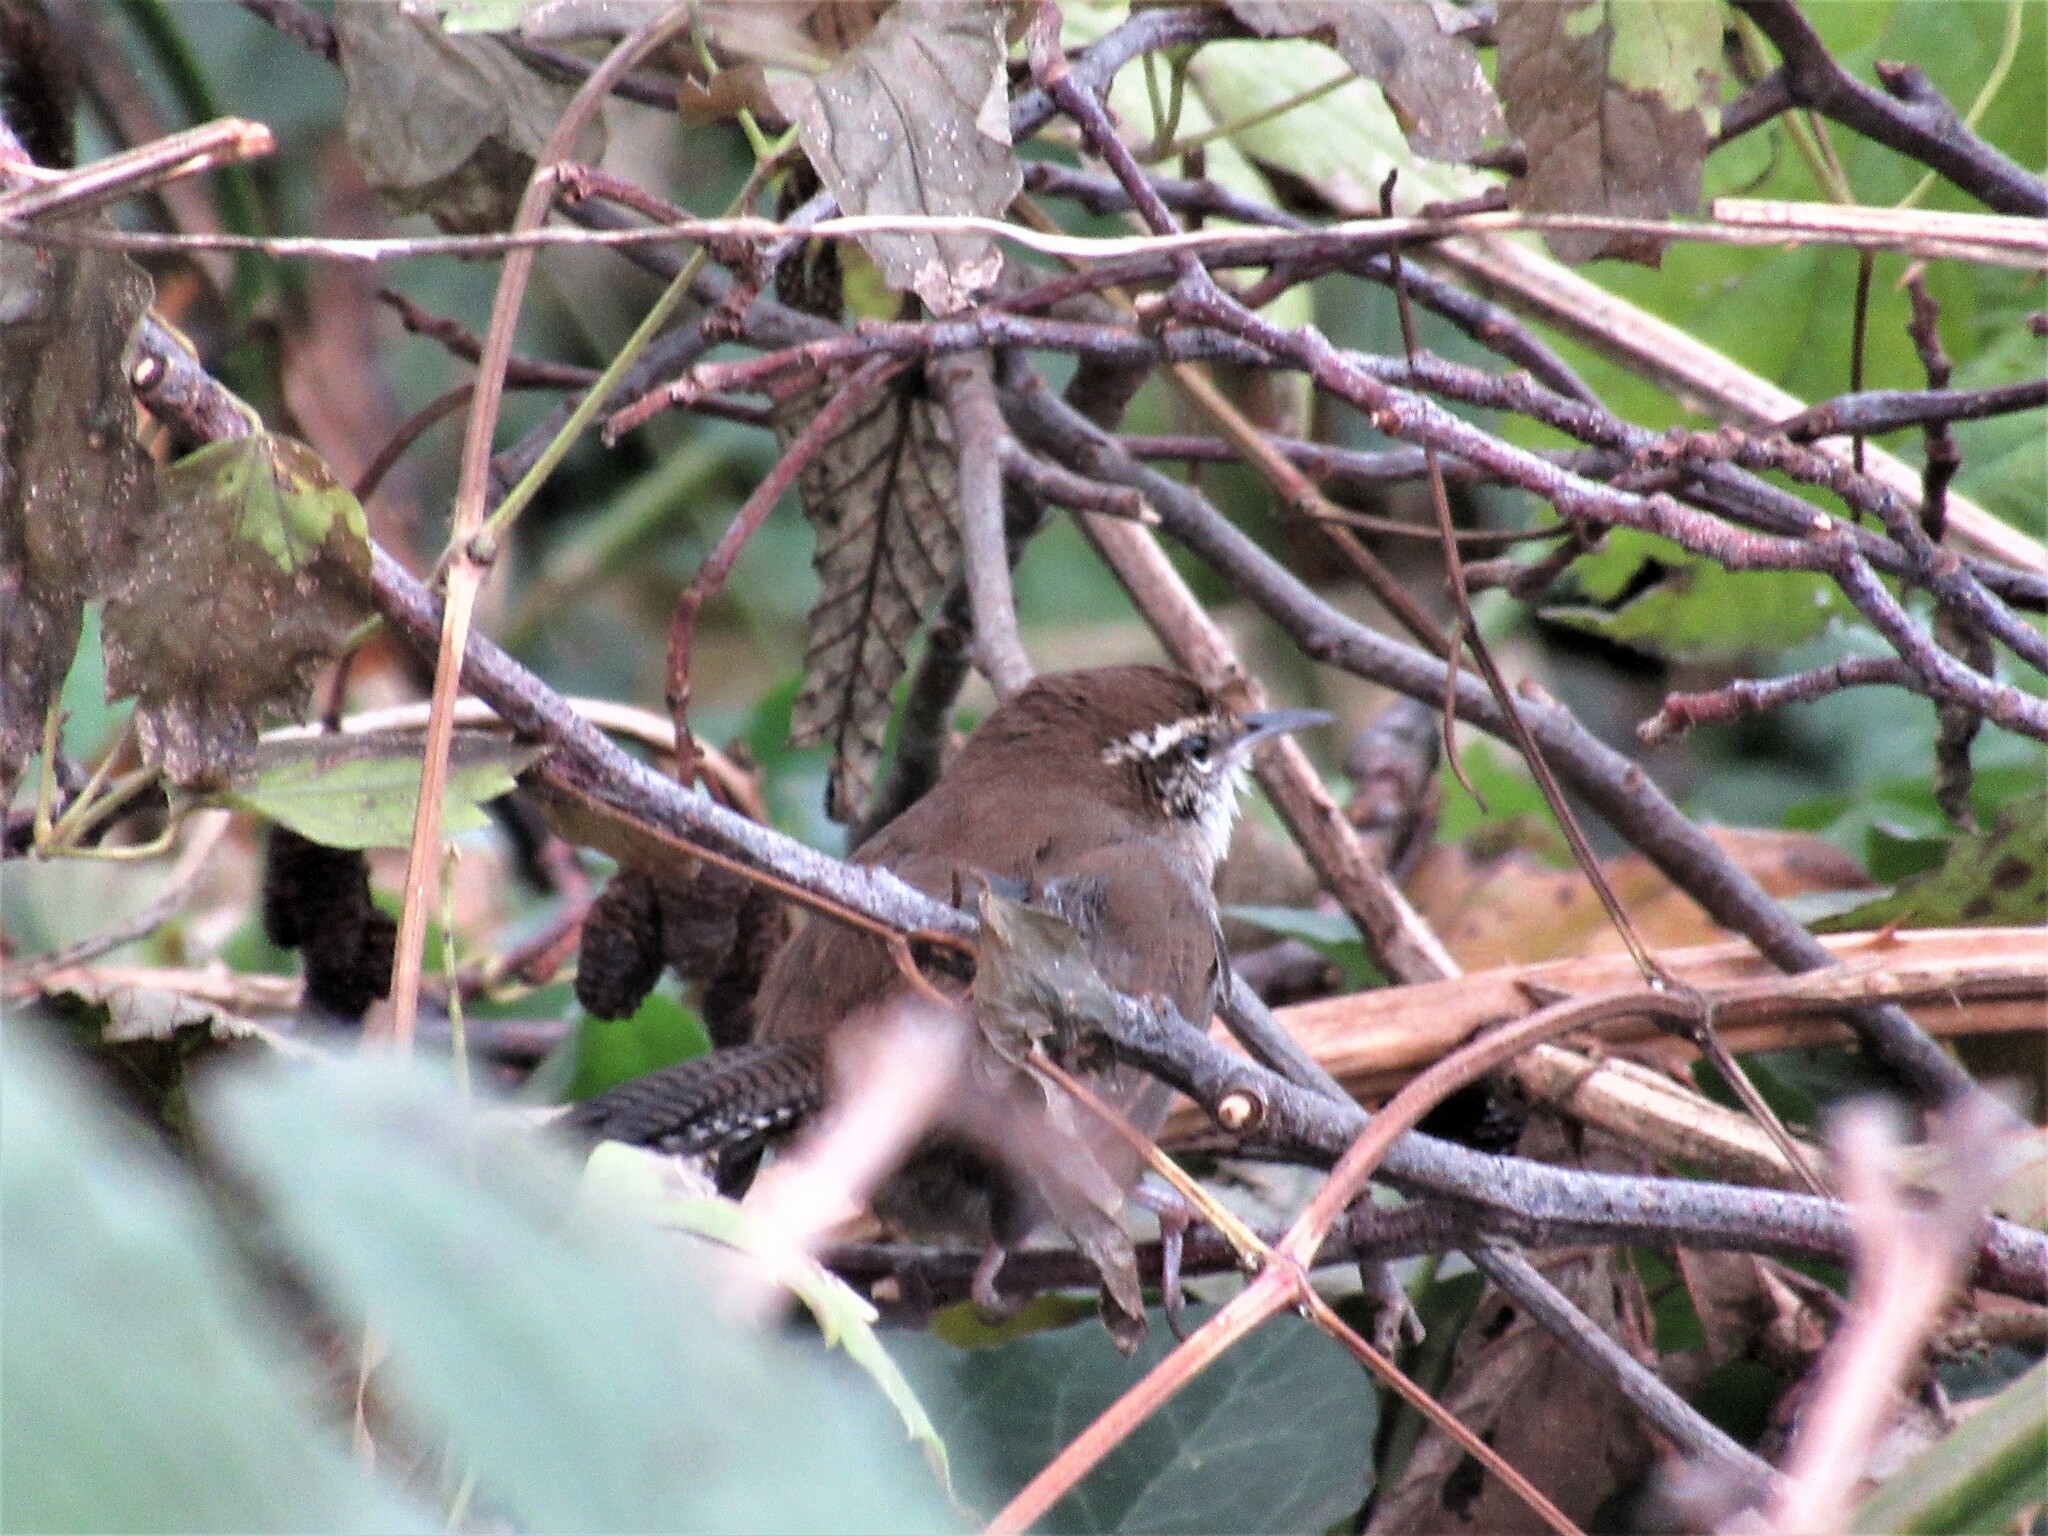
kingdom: Animalia
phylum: Chordata
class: Aves
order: Passeriformes
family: Troglodytidae
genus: Thryomanes
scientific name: Thryomanes bewickii
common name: Bewick's wren
